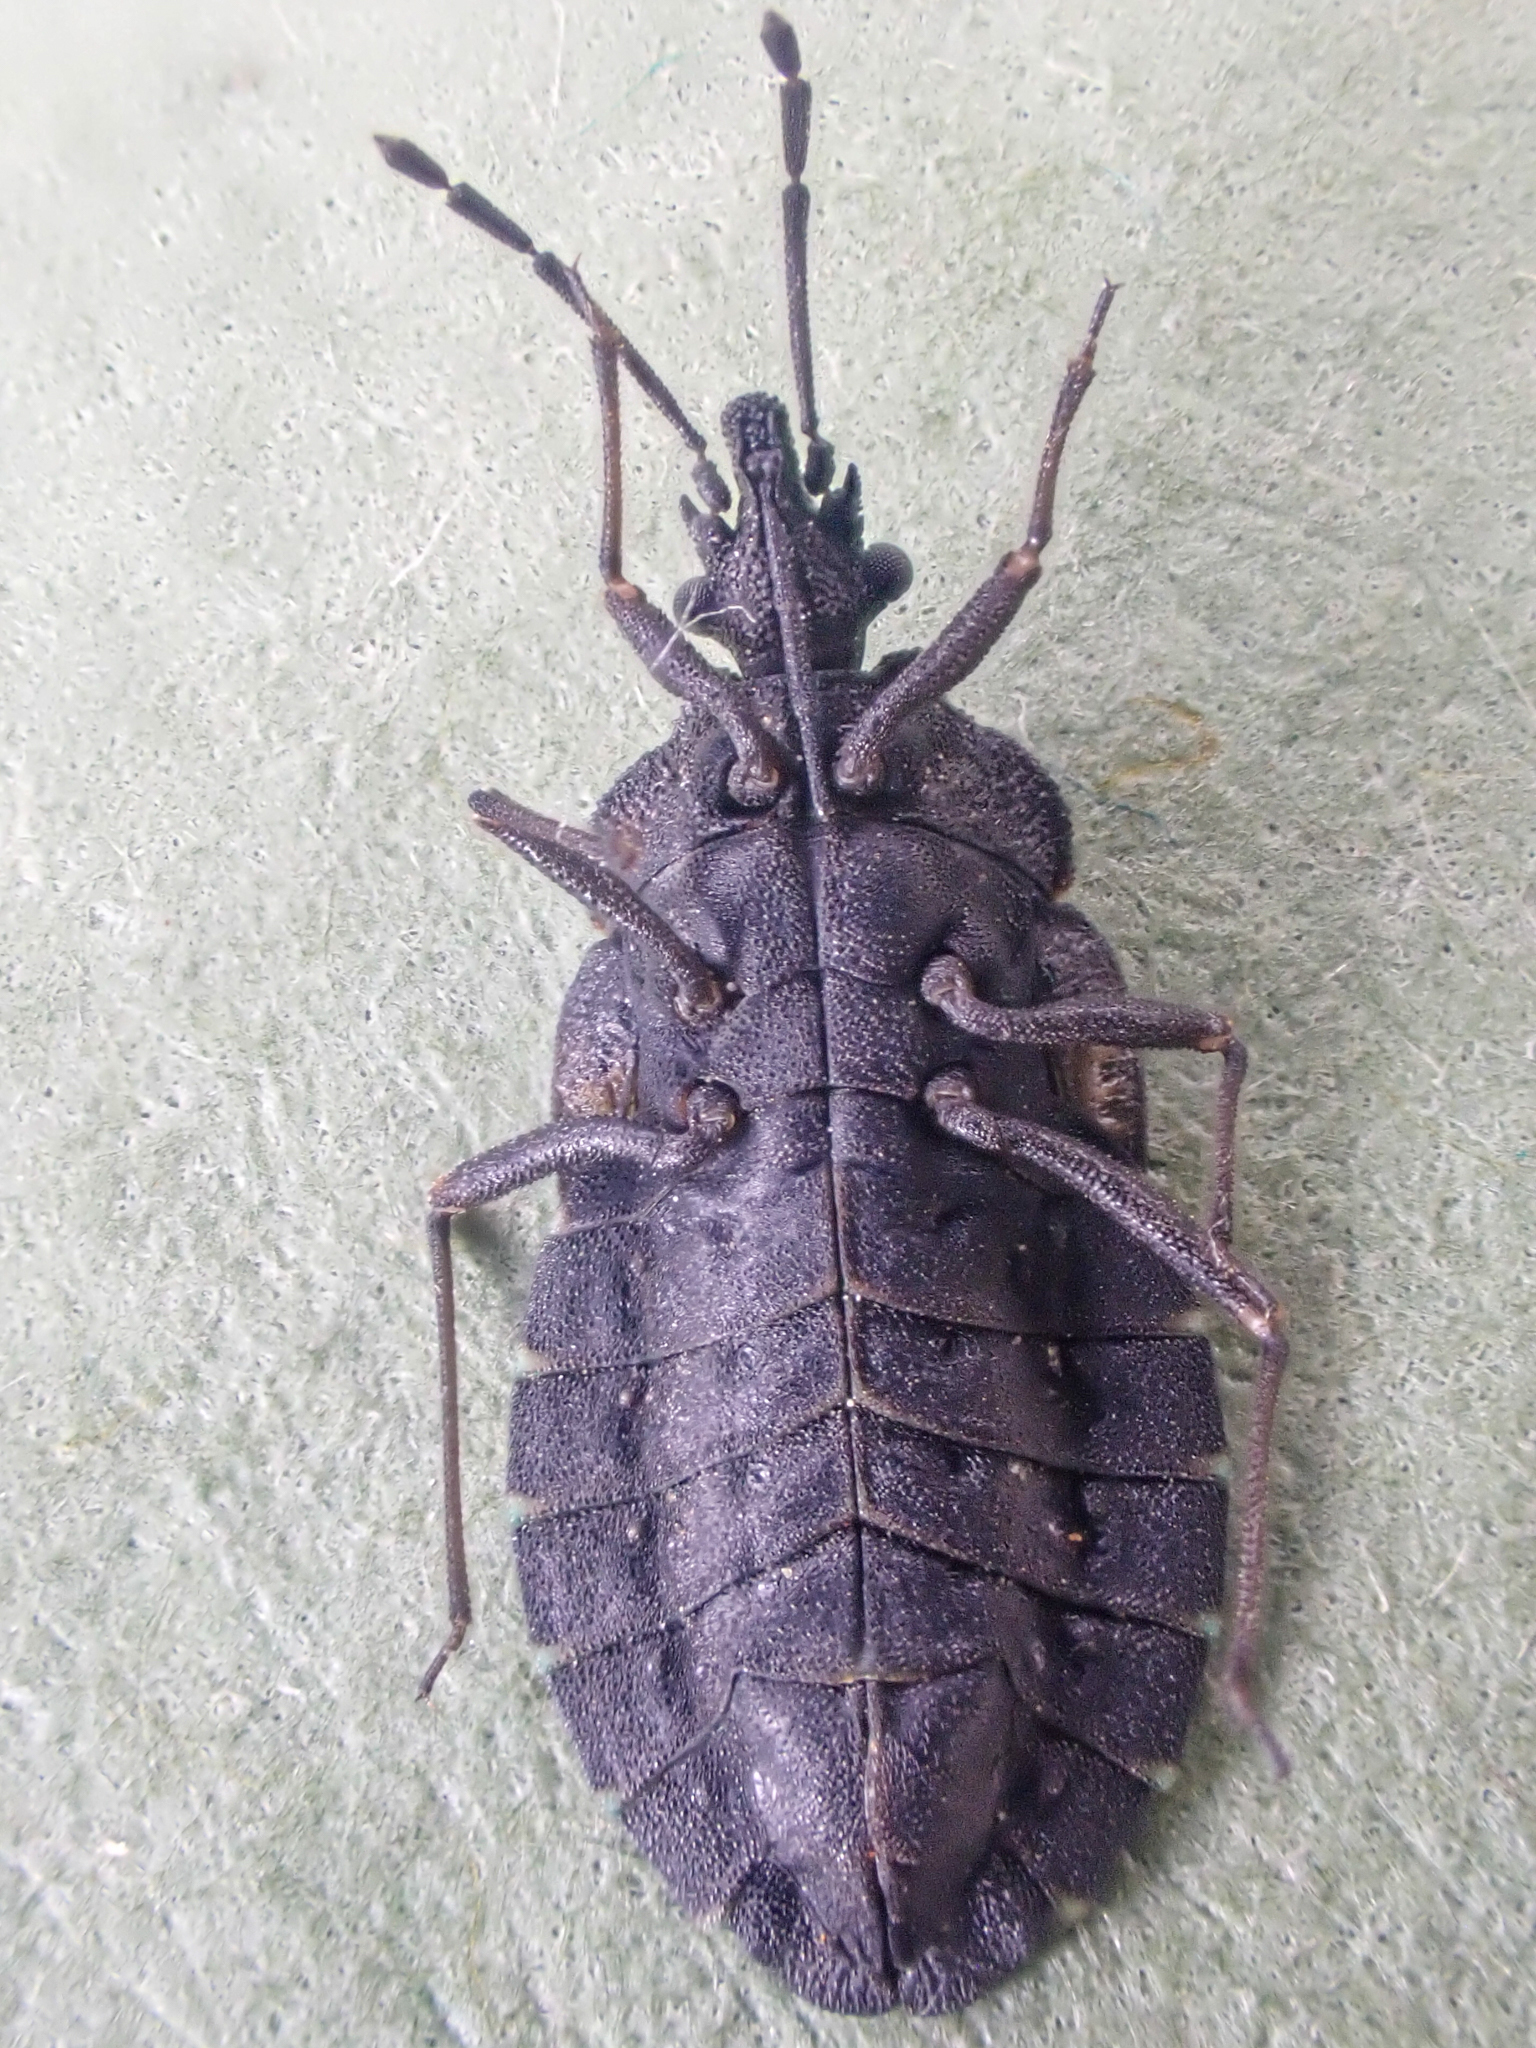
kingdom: Animalia
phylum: Arthropoda
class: Insecta
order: Hemiptera
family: Aradidae
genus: Aradus
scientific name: Aradus funestus
